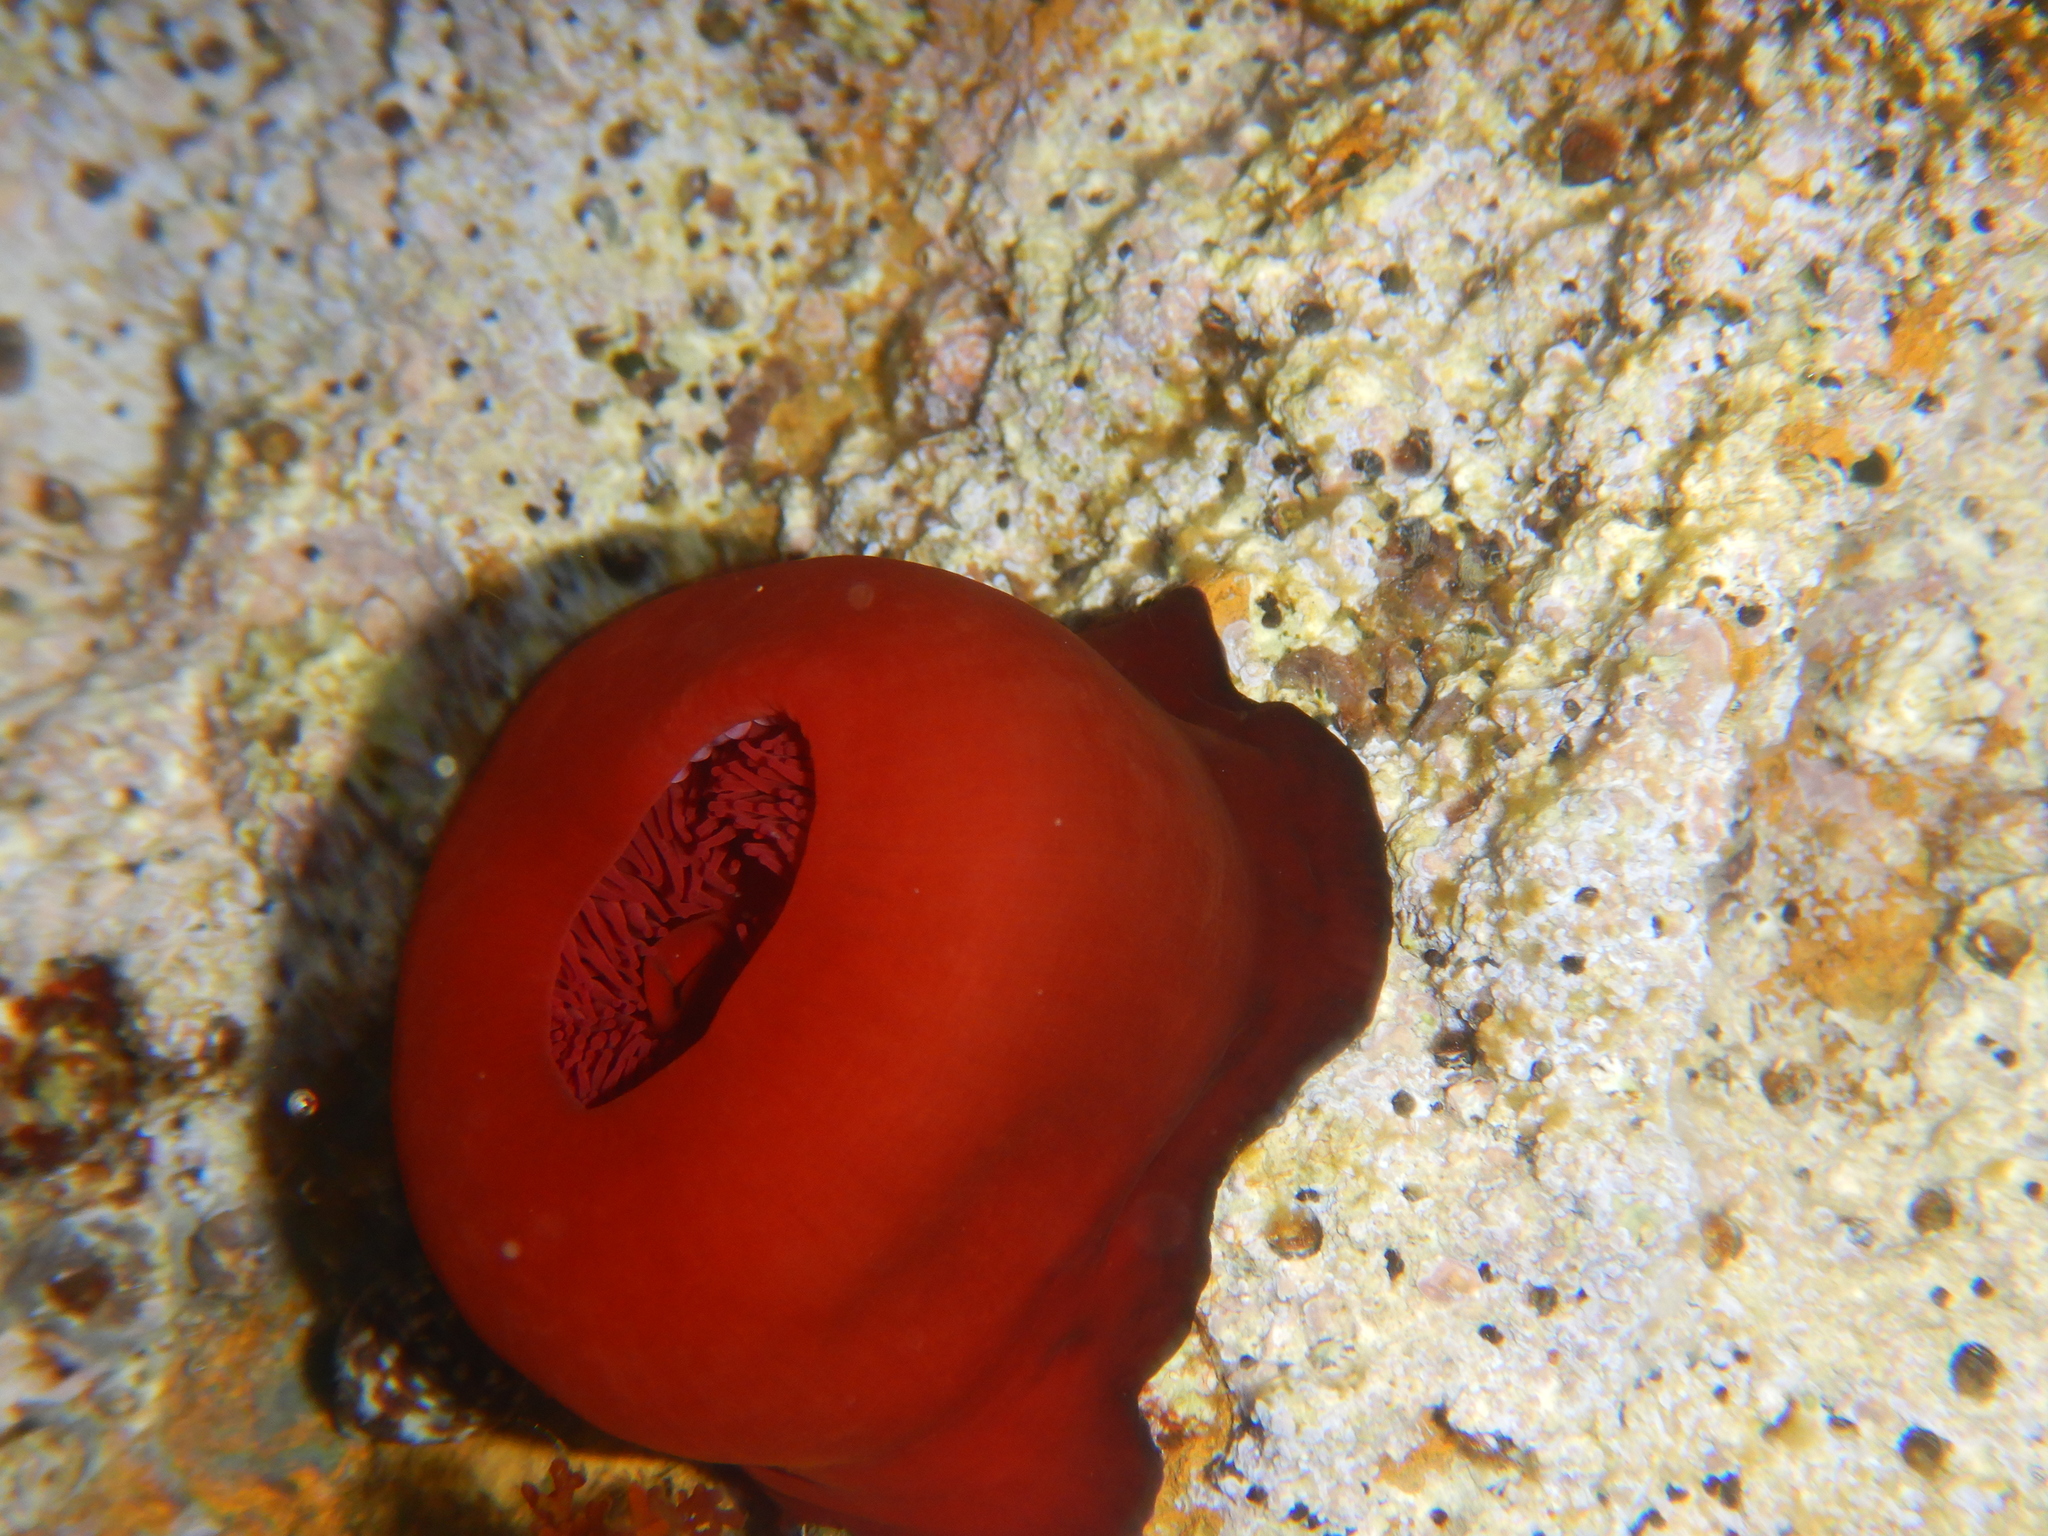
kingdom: Animalia
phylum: Cnidaria
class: Anthozoa
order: Actiniaria
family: Actiniidae
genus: Actinia
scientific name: Actinia mediterranea
